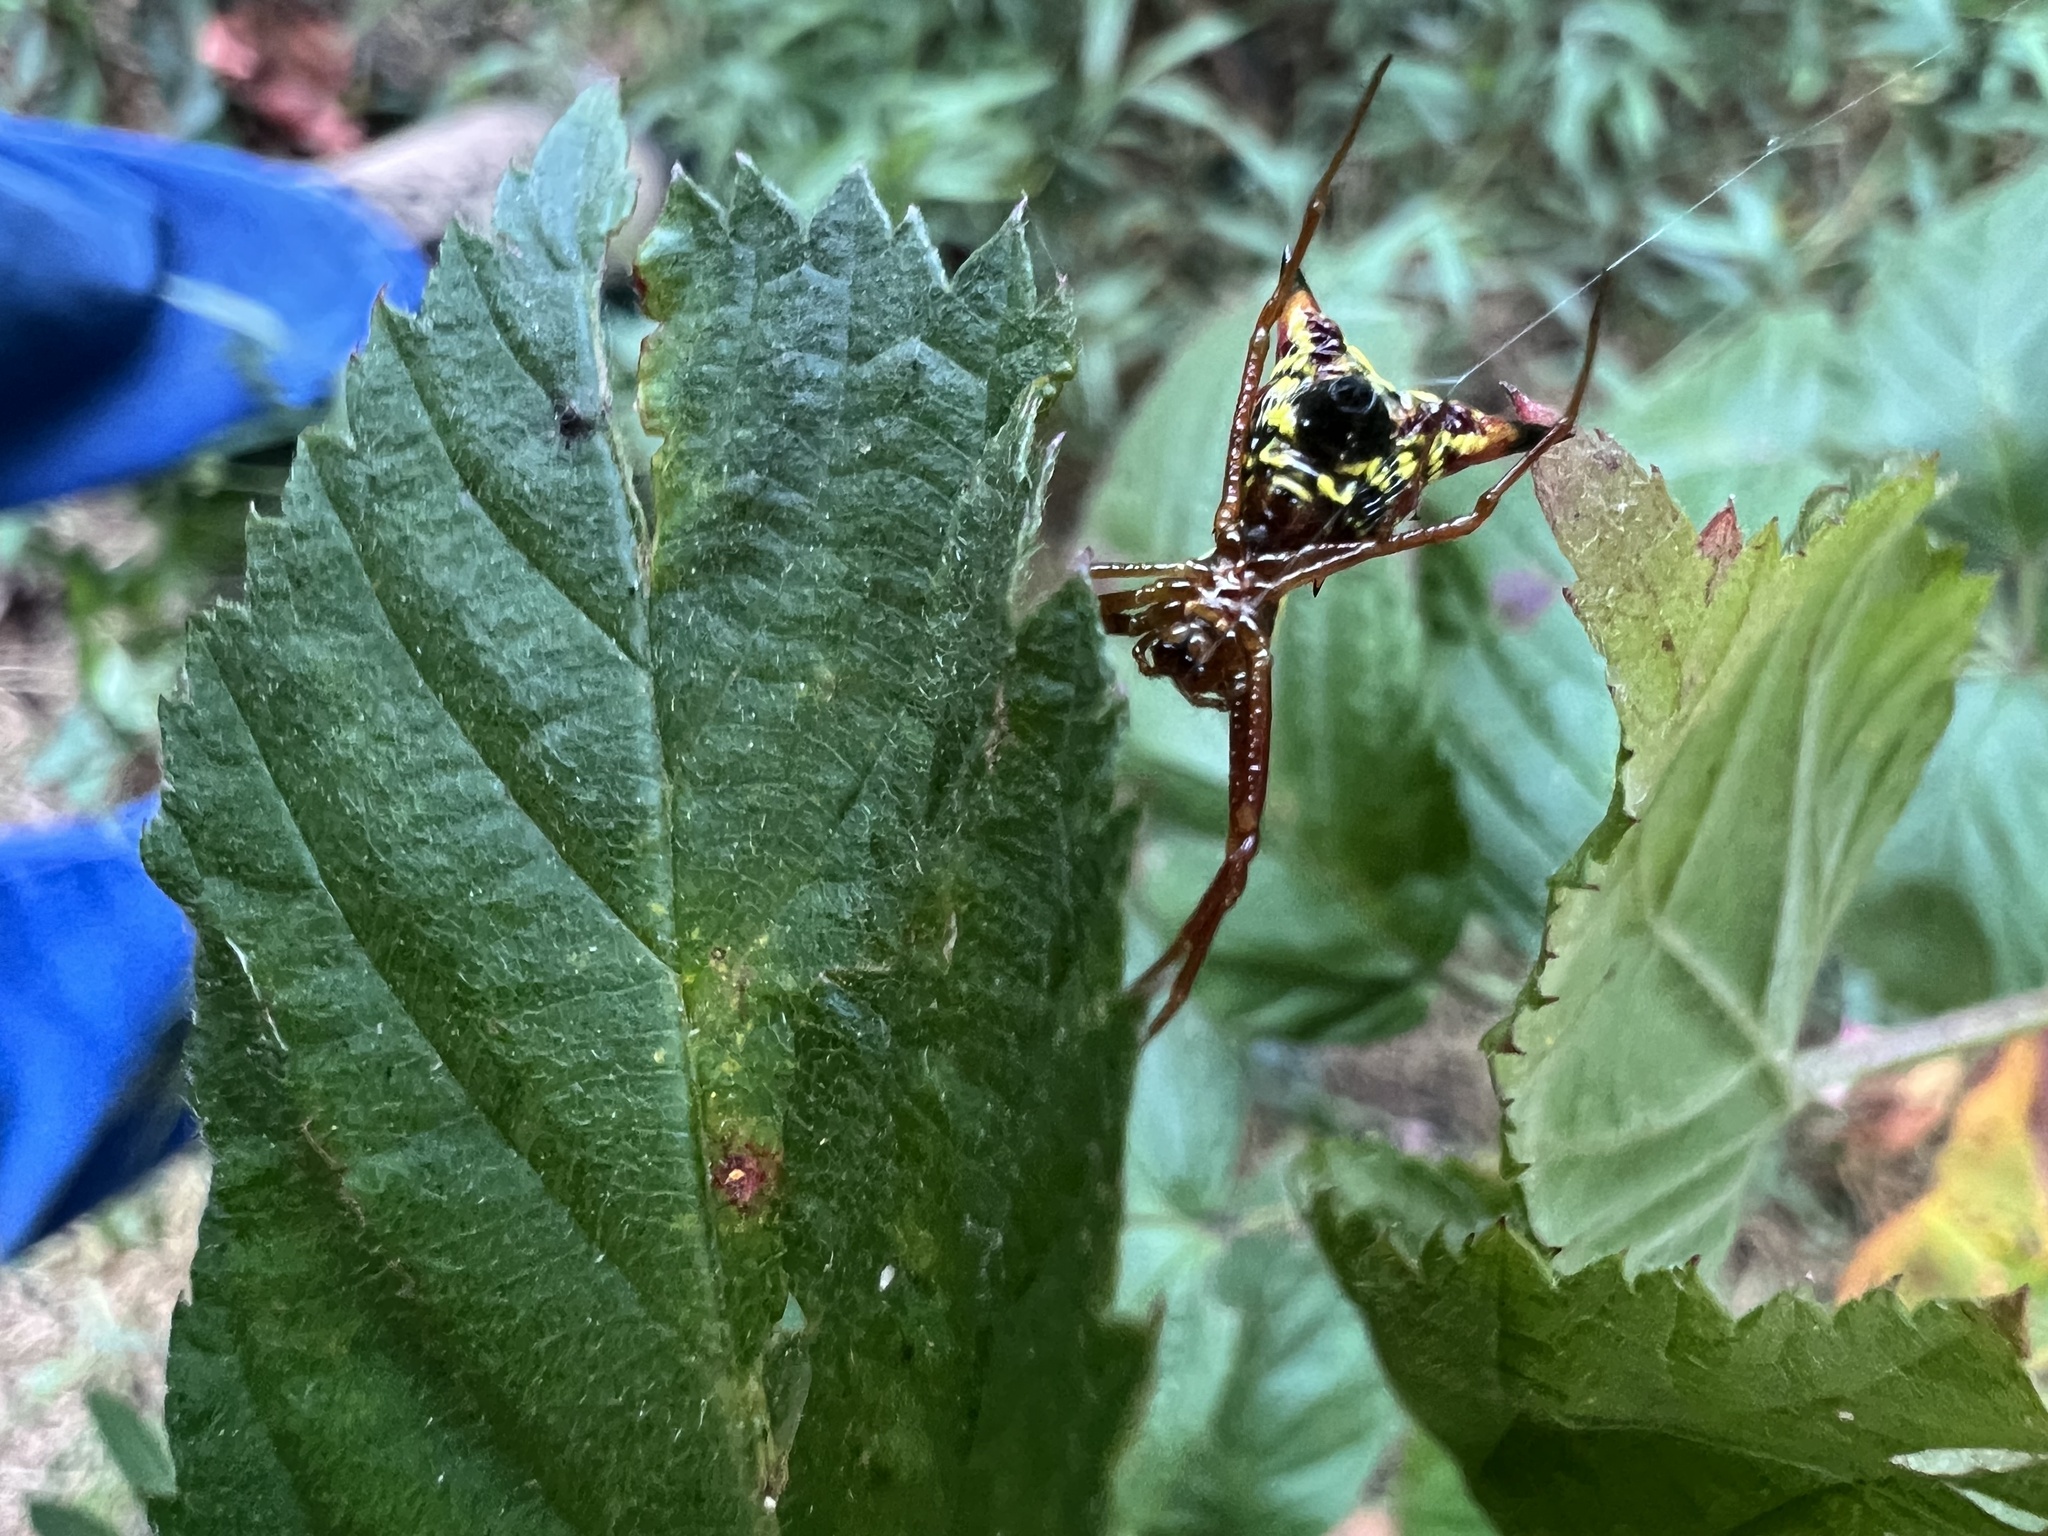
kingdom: Animalia
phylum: Arthropoda
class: Arachnida
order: Araneae
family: Araneidae
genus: Micrathena
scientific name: Micrathena sagittata
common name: Orb weavers
